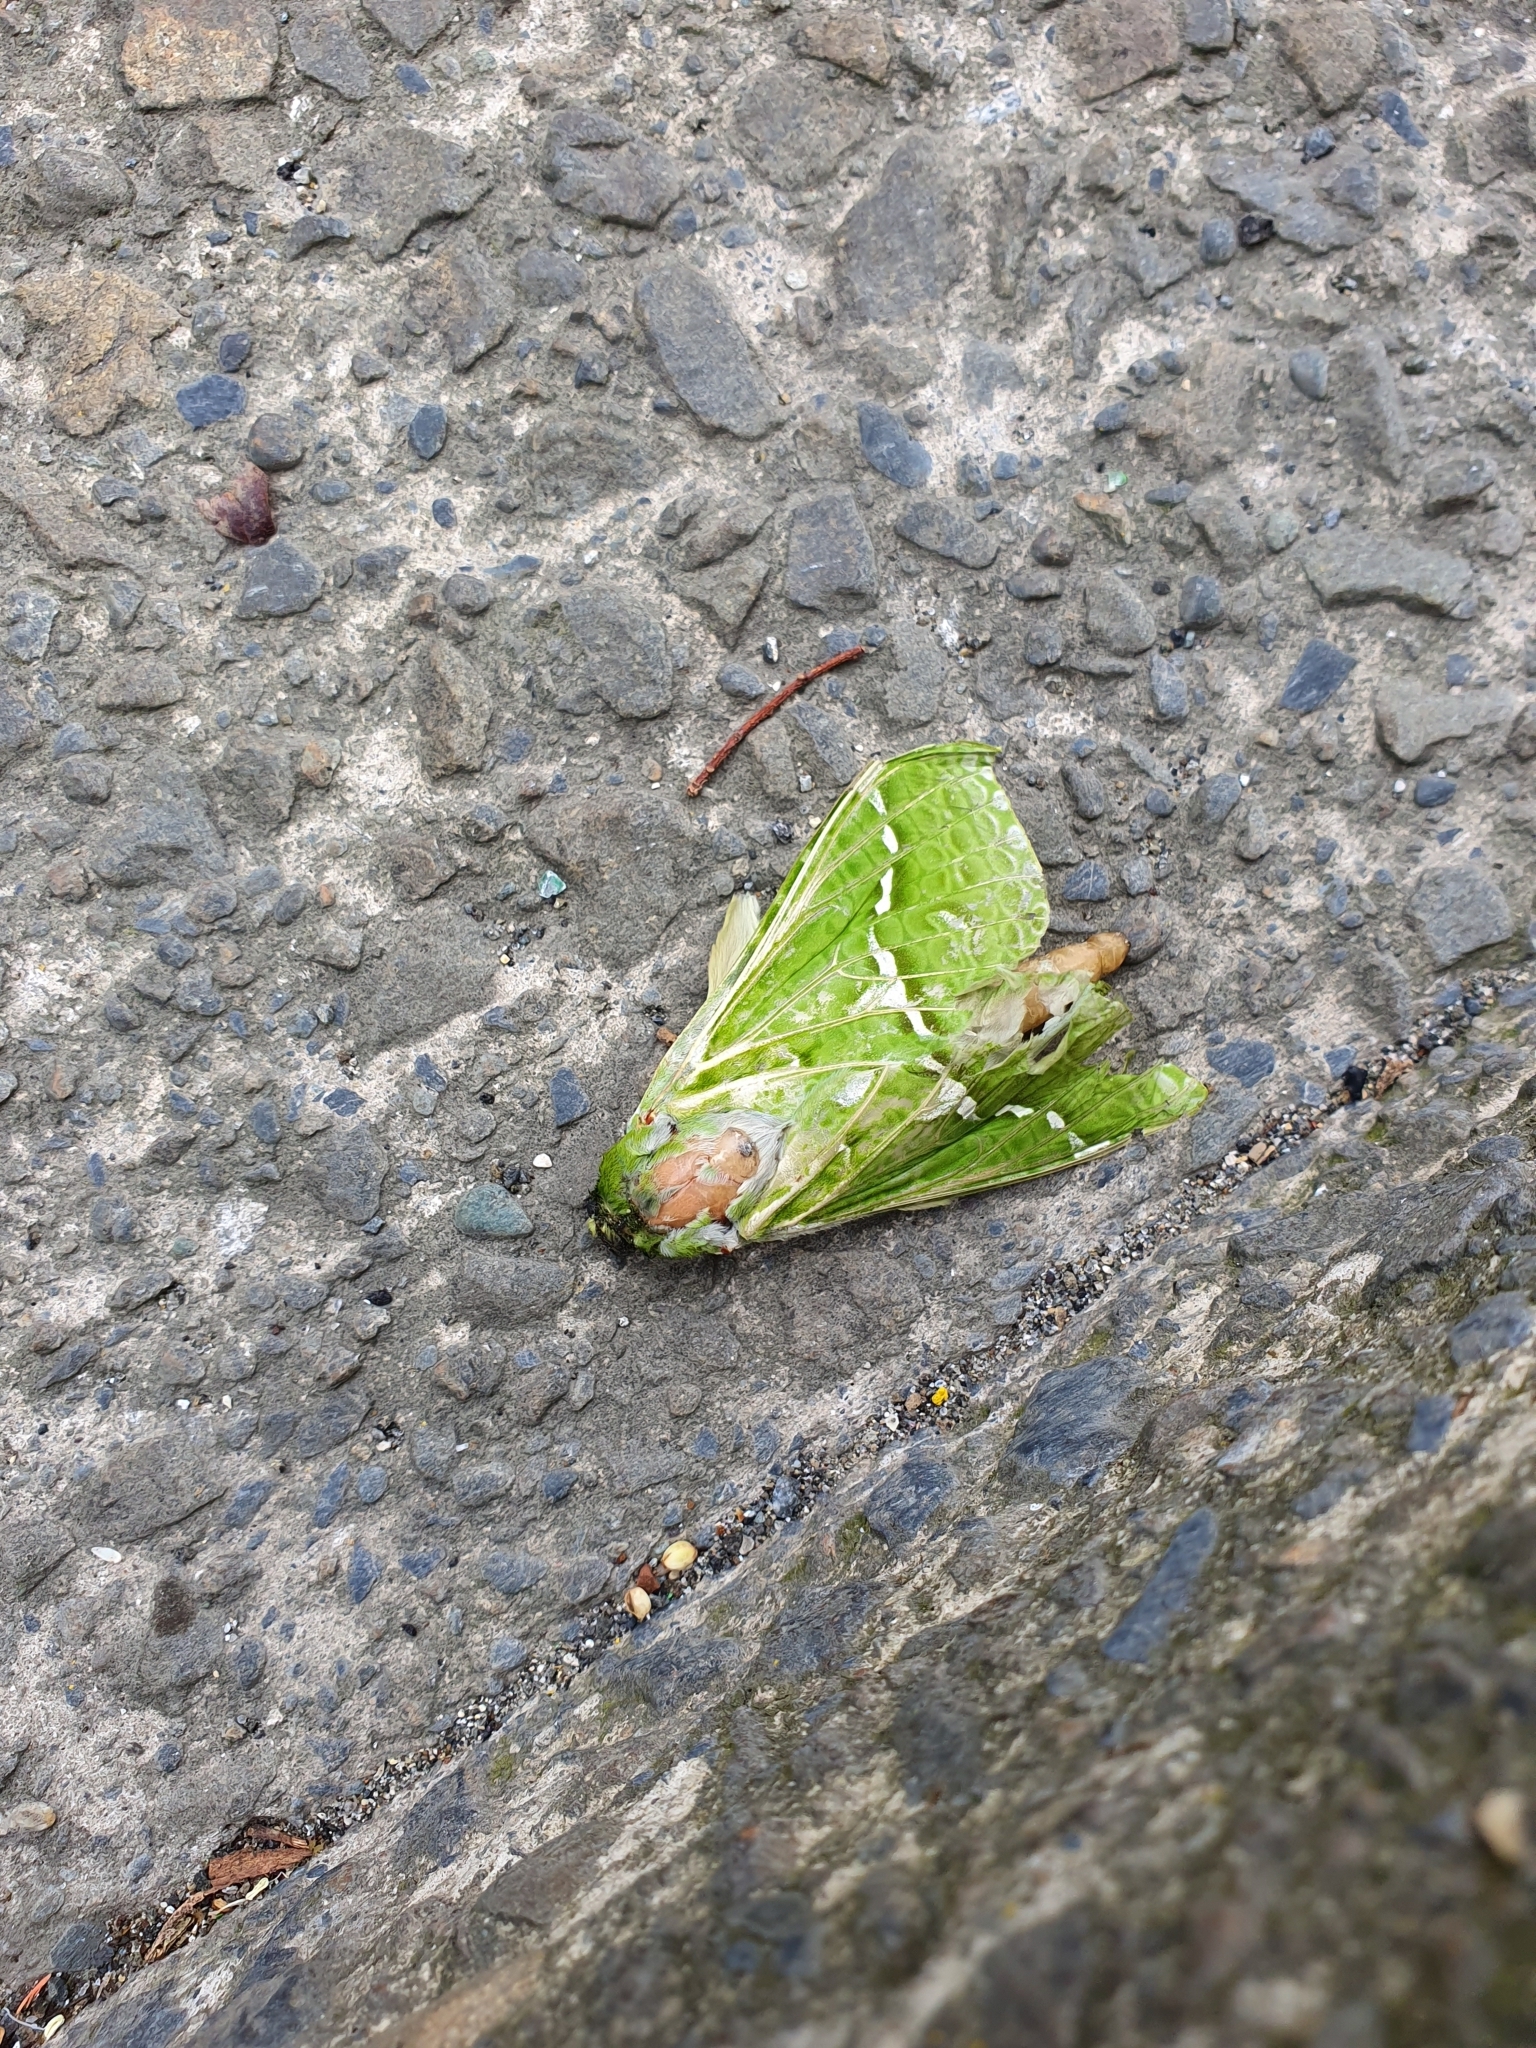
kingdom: Animalia
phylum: Arthropoda
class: Insecta
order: Lepidoptera
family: Hepialidae
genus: Aenetus
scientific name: Aenetus virescens
